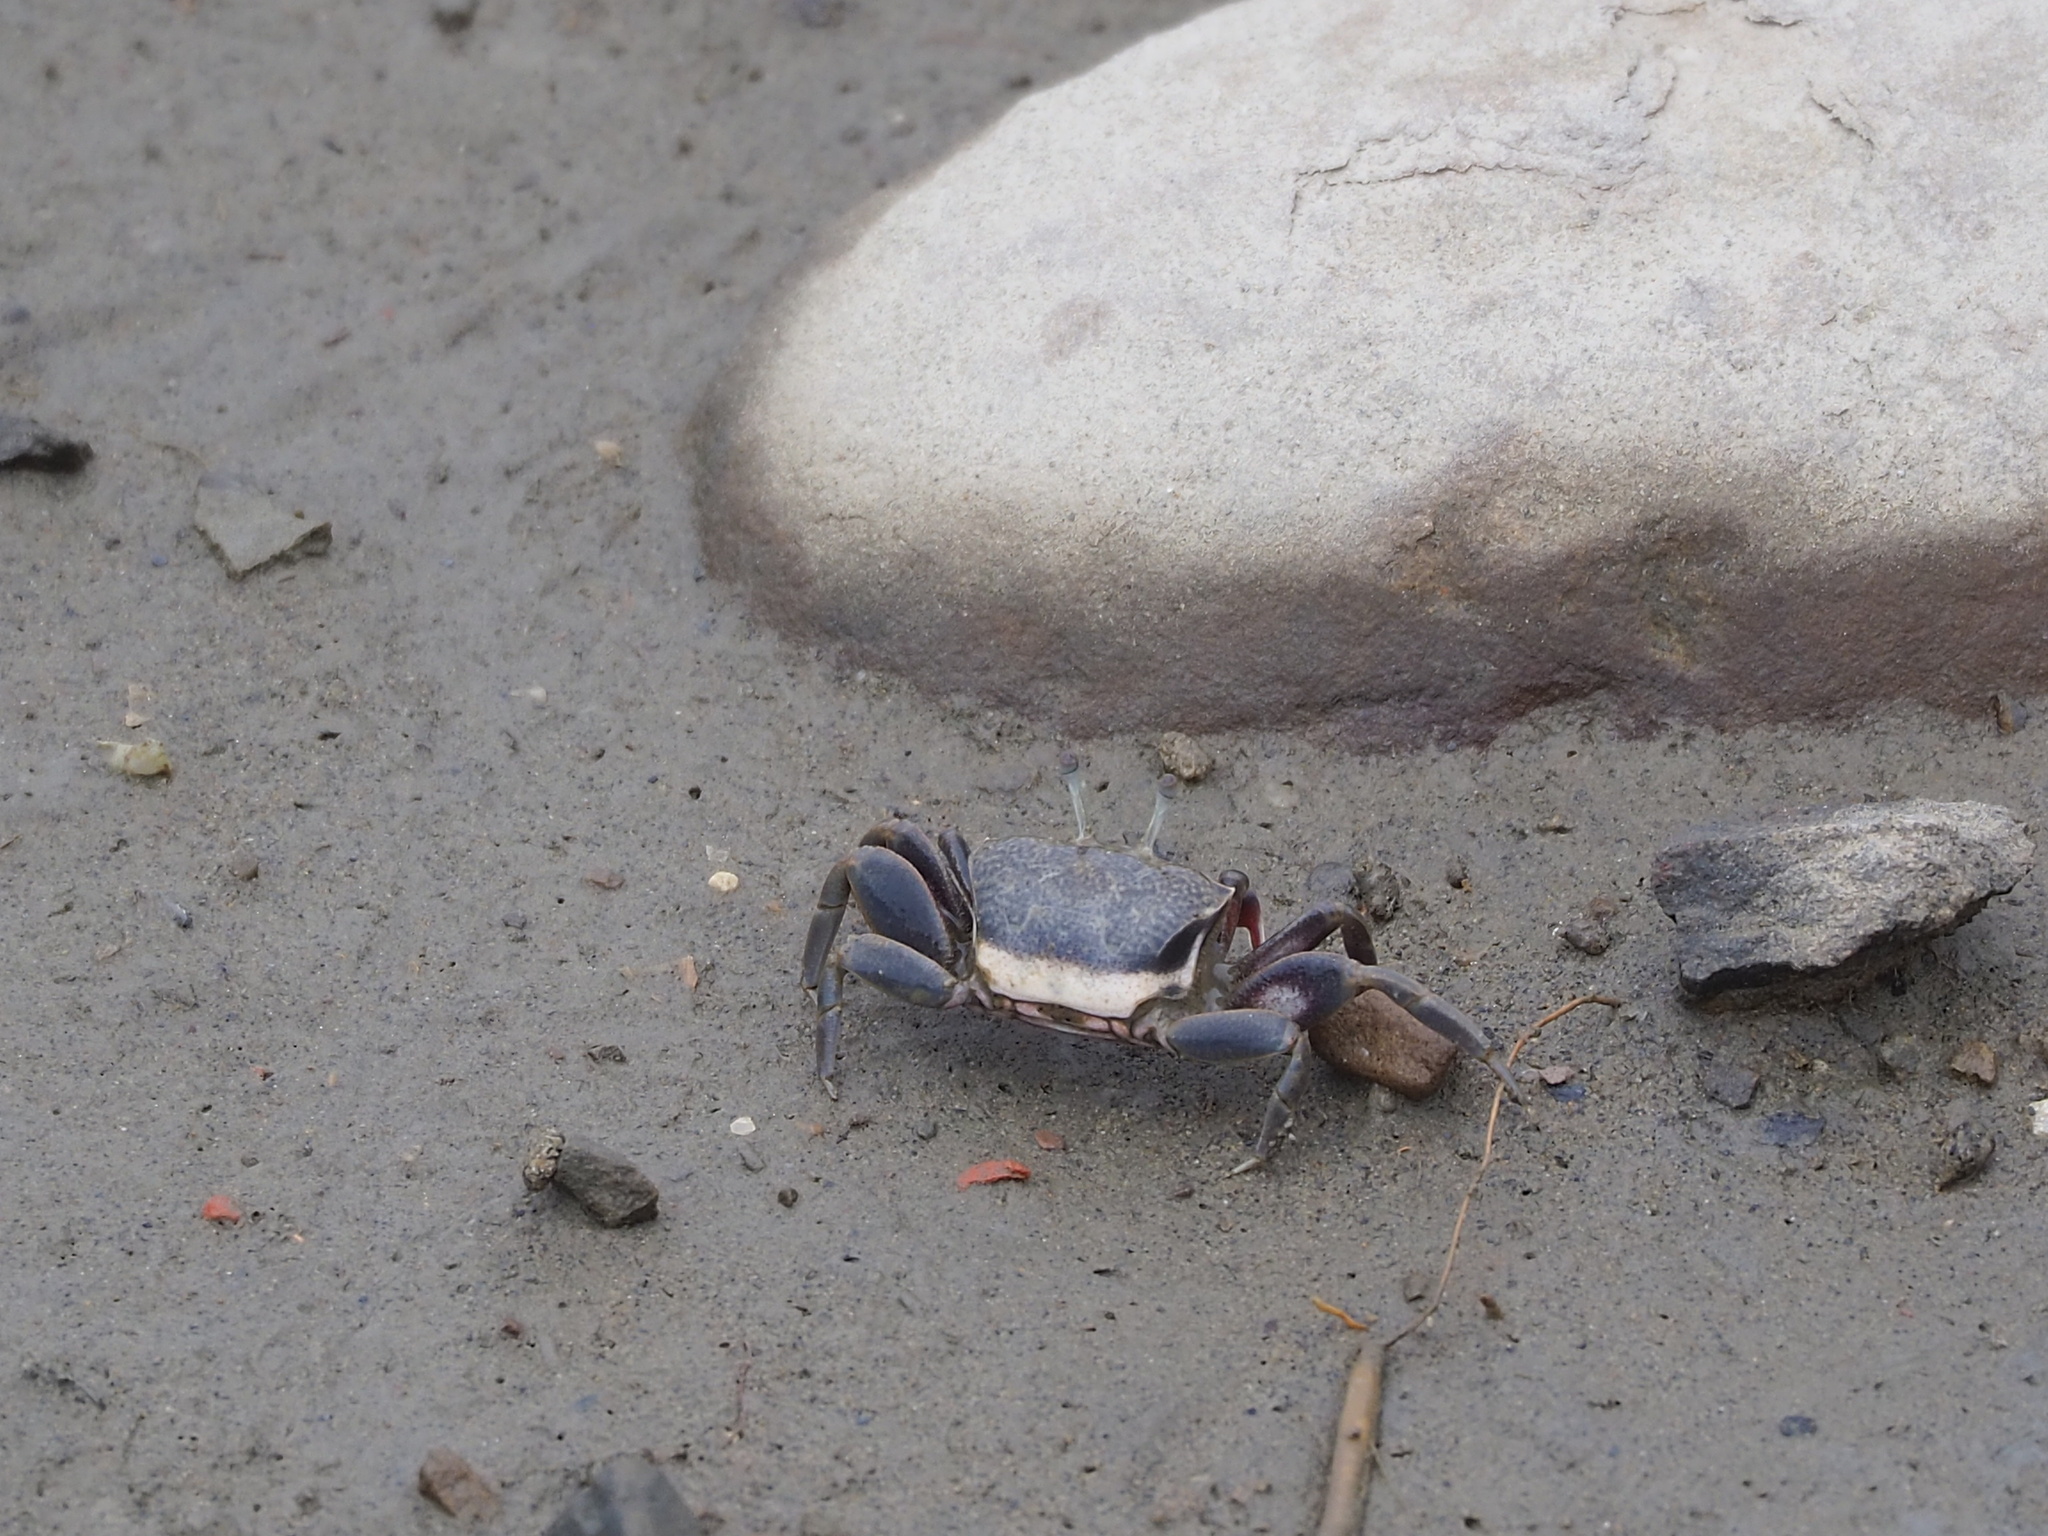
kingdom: Animalia
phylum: Arthropoda
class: Malacostraca
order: Decapoda
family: Ocypodidae
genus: Xeruca
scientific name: Xeruca formosensis
